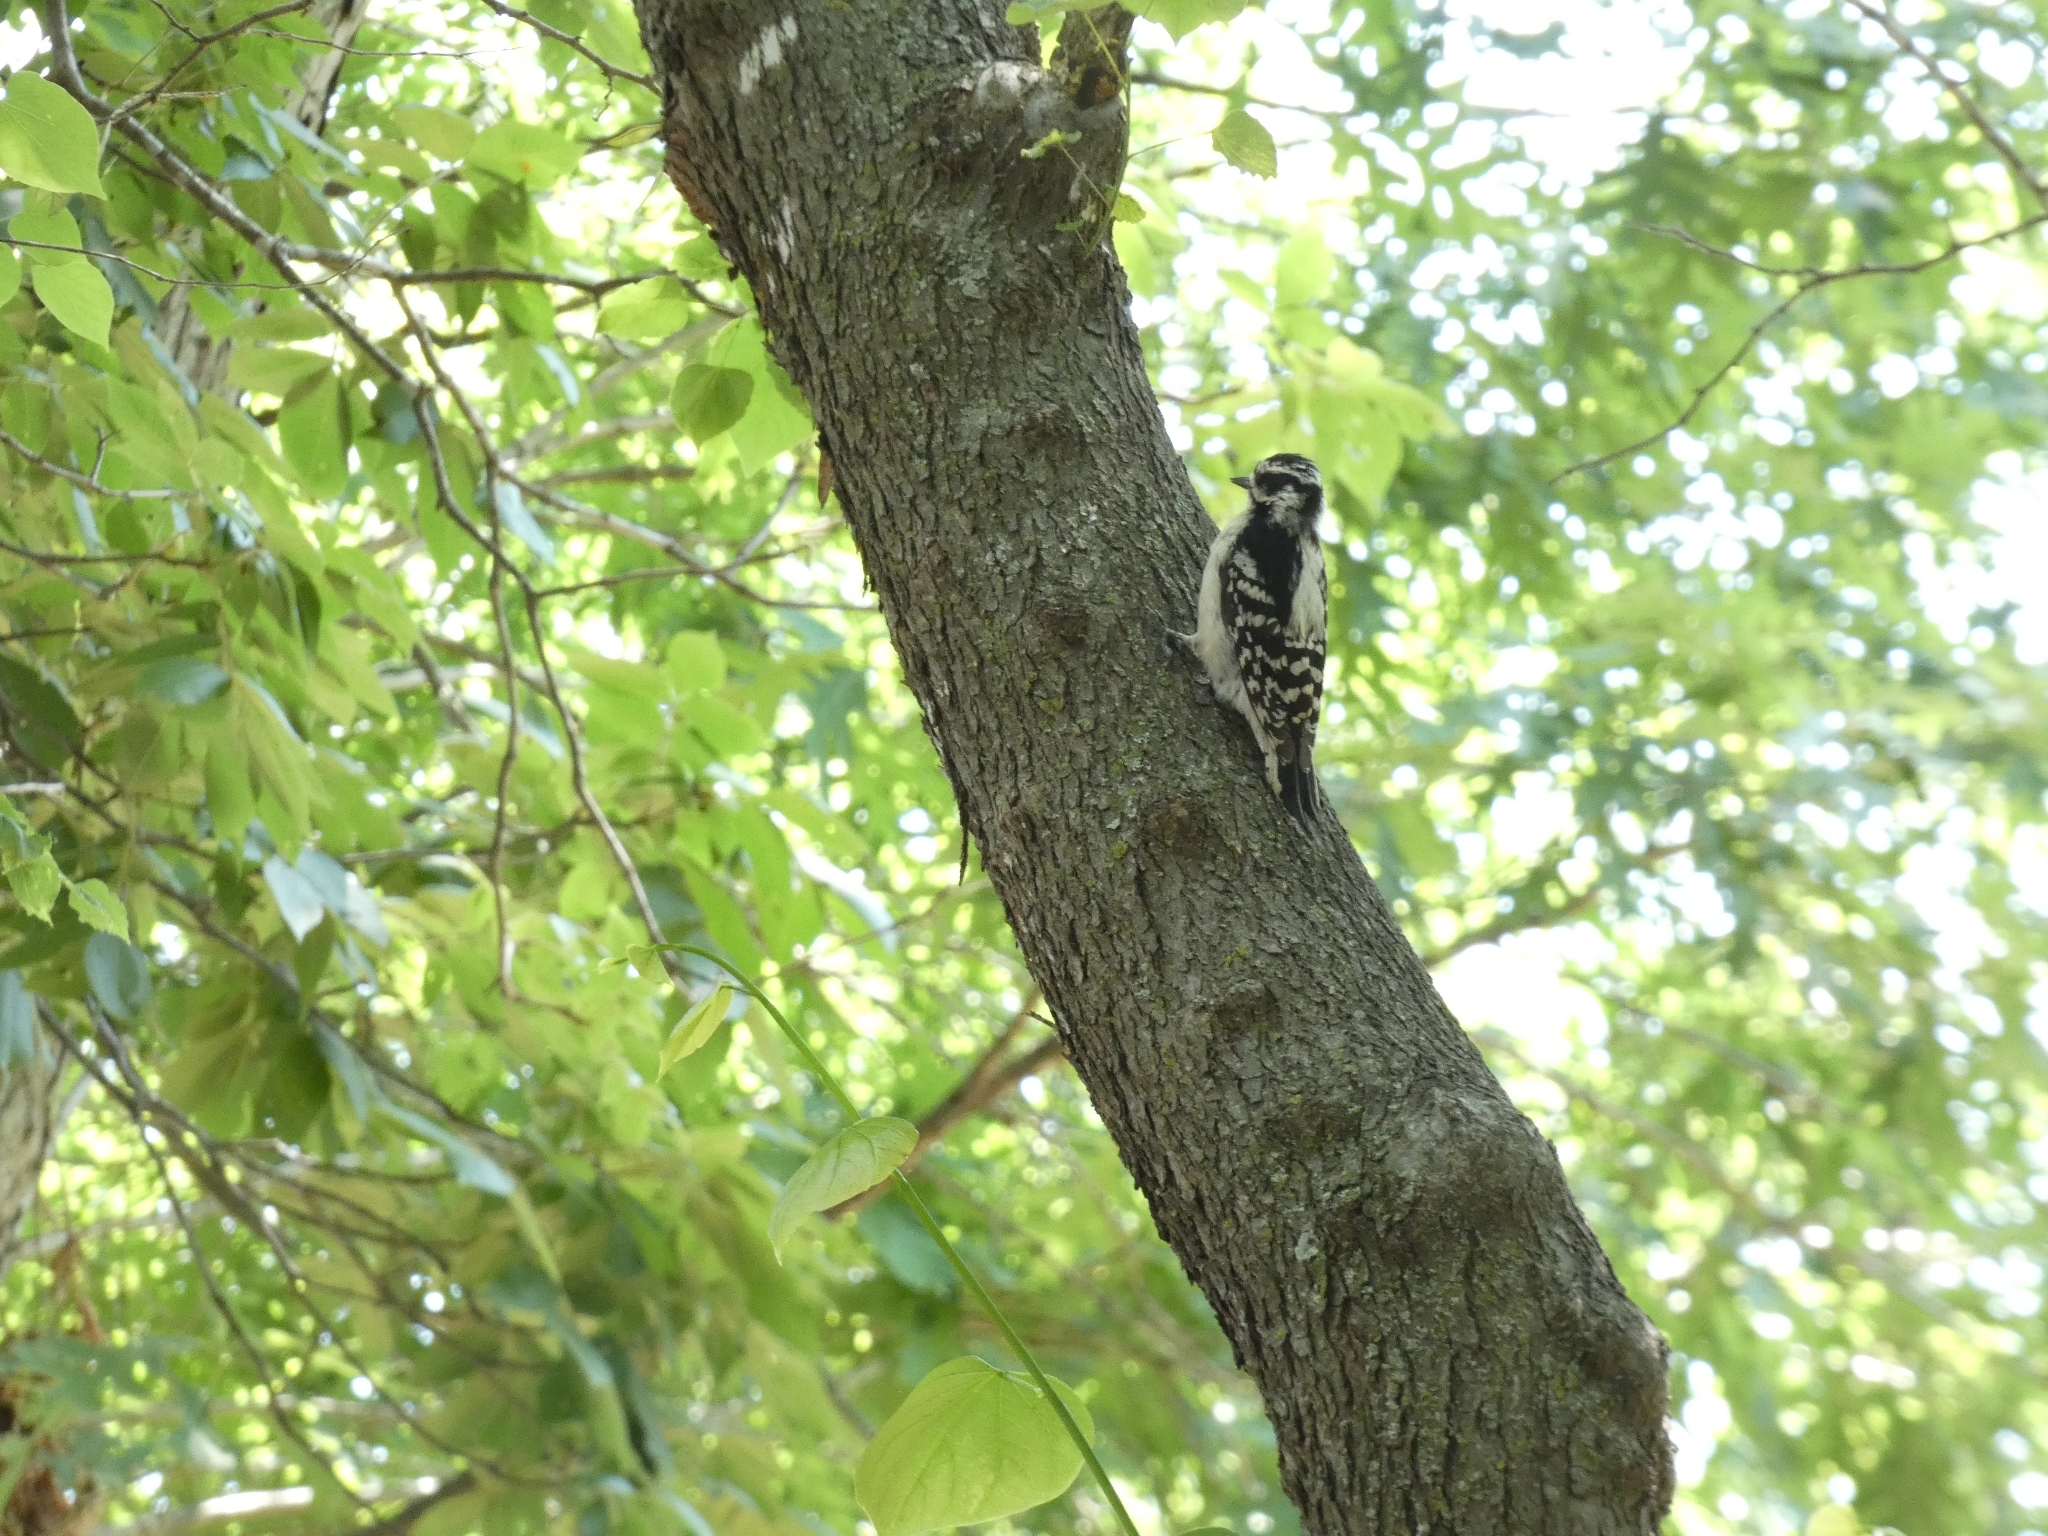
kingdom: Animalia
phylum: Chordata
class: Aves
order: Piciformes
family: Picidae
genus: Dryobates
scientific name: Dryobates pubescens
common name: Downy woodpecker
